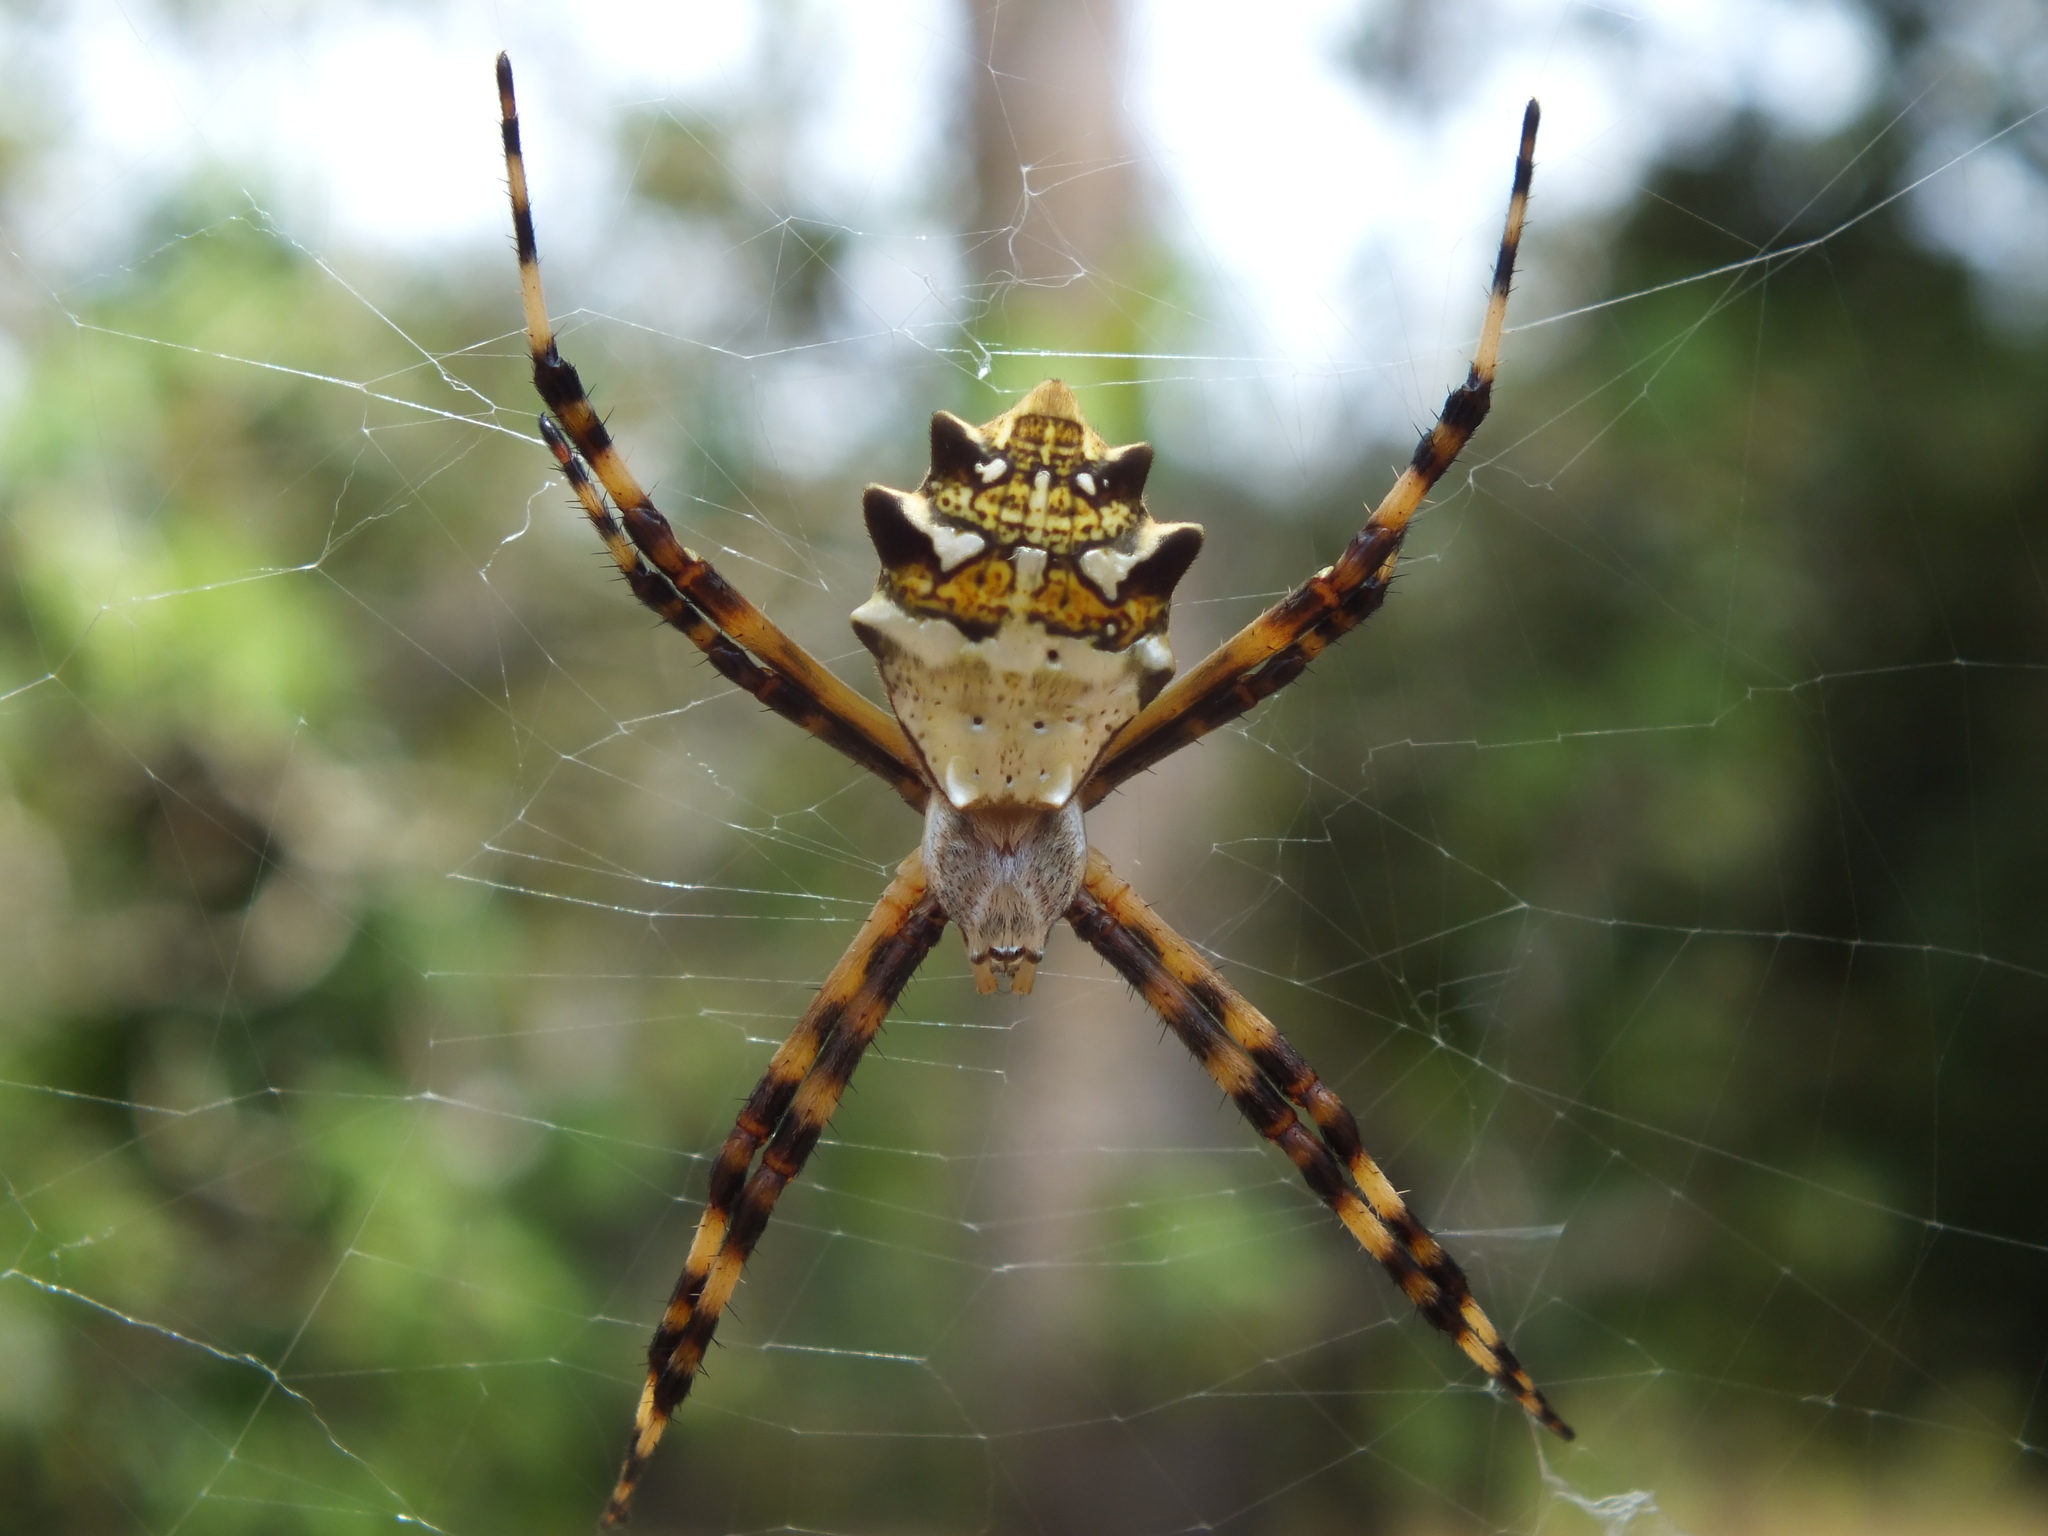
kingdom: Animalia
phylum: Arthropoda
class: Arachnida
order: Araneae
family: Araneidae
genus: Argiope
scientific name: Argiope argentata
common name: Orb weavers
